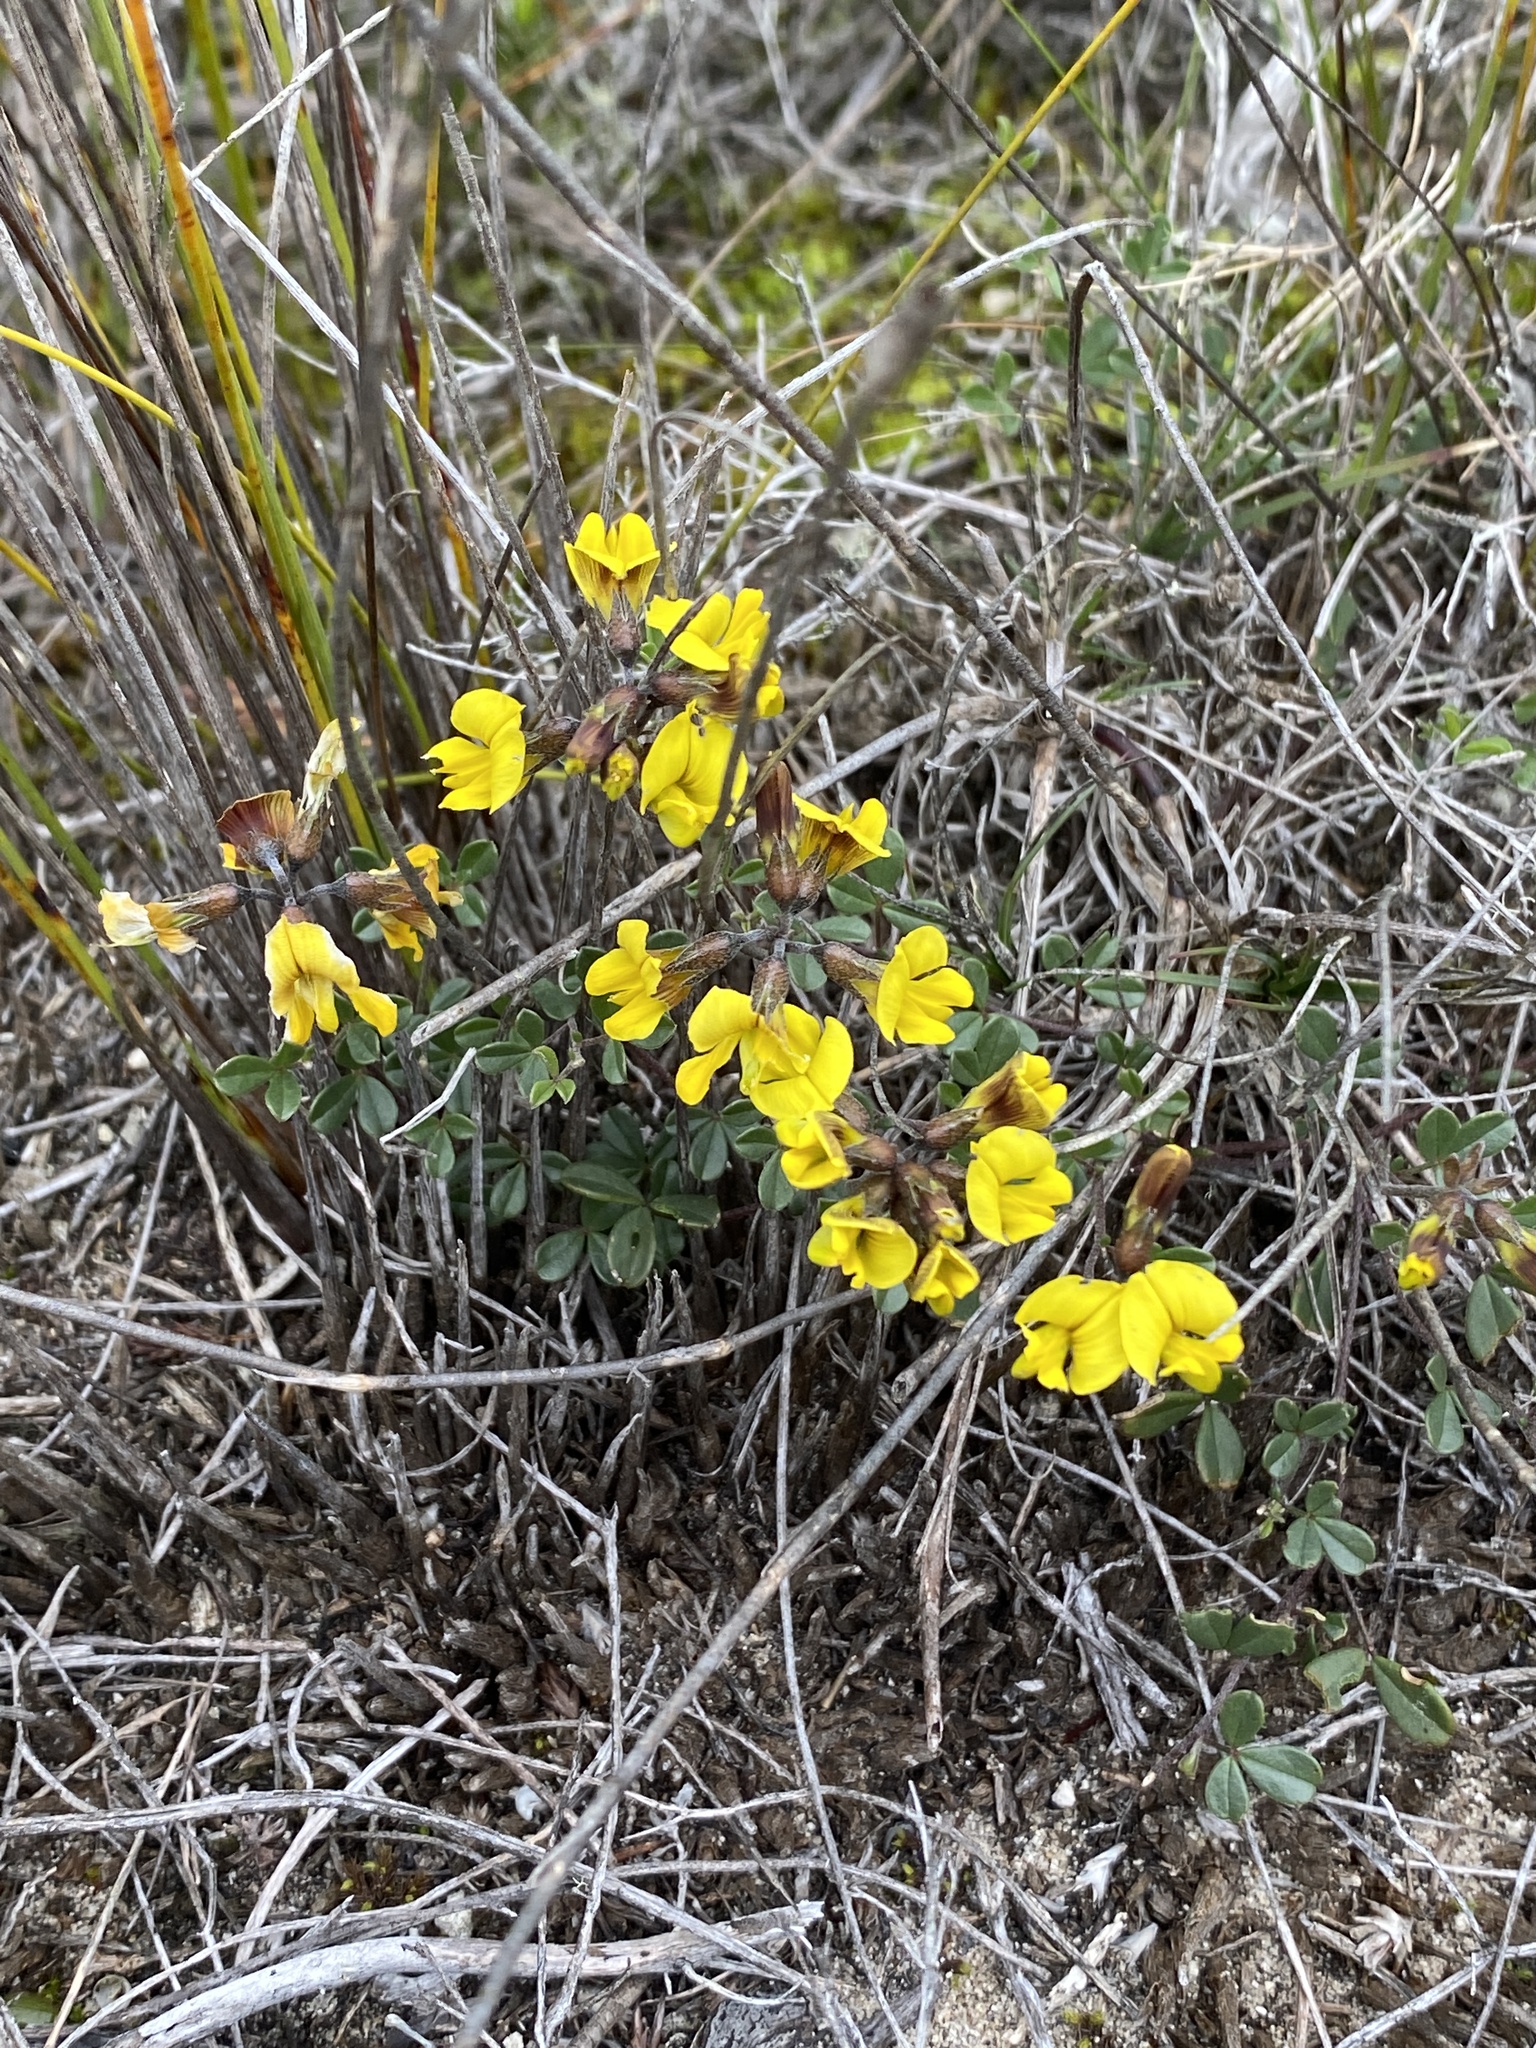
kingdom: Plantae
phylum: Tracheophyta
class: Magnoliopsida
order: Fabales
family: Fabaceae
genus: Lotononis
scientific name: Lotononis umbellata
